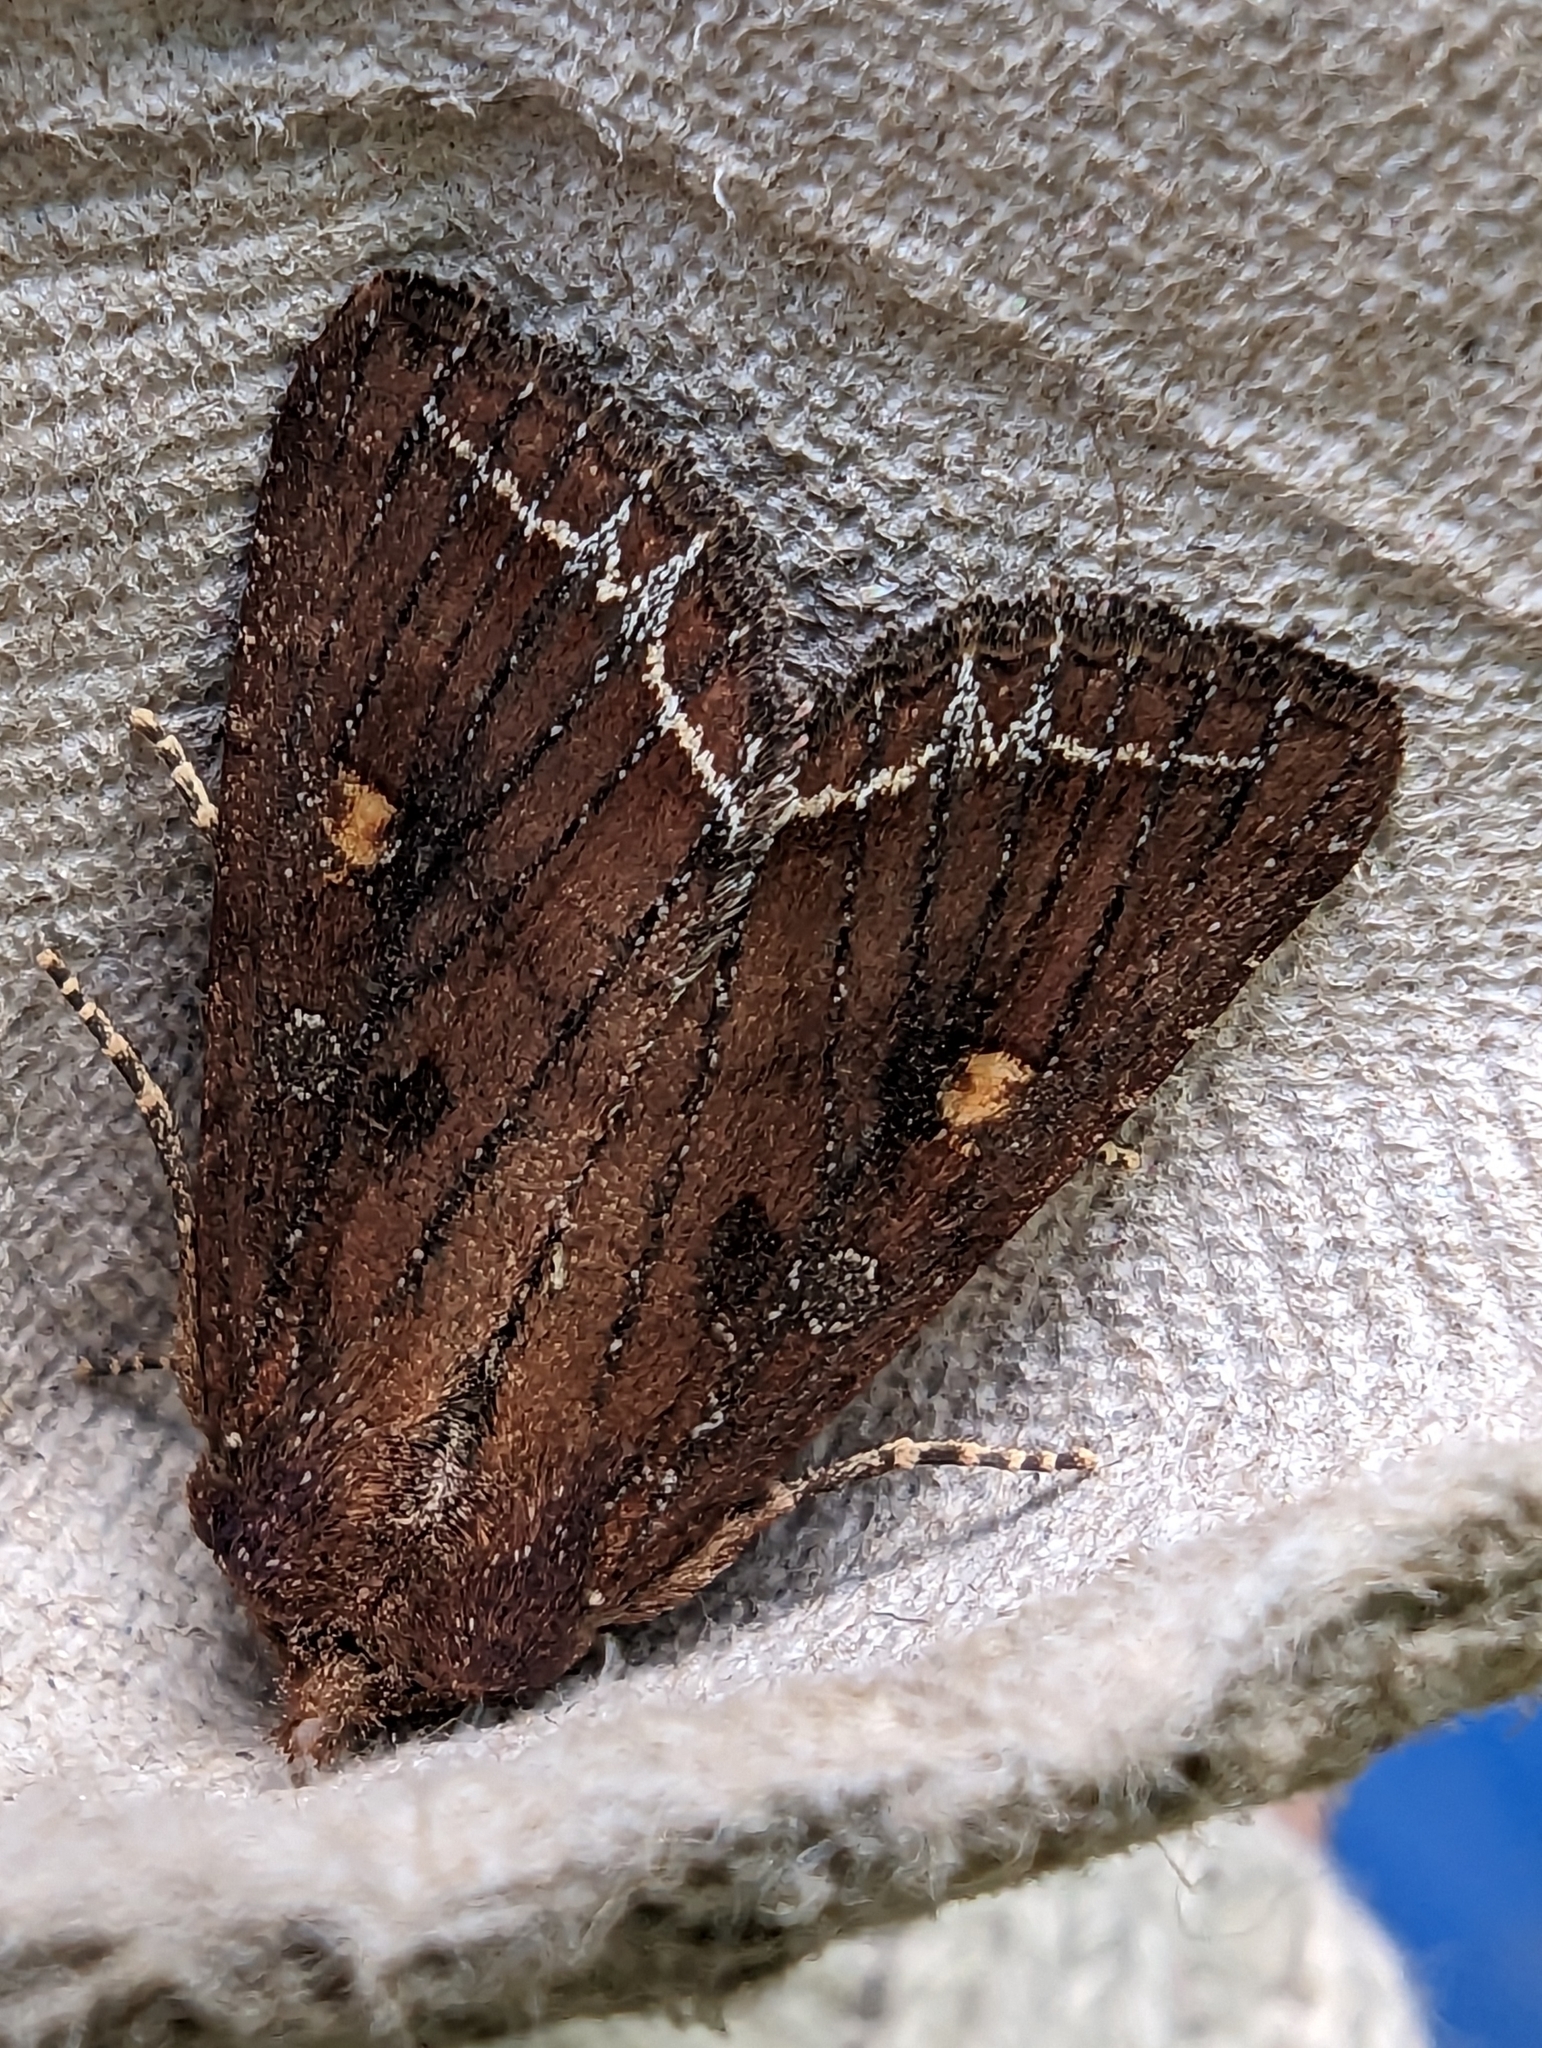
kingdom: Animalia
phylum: Arthropoda
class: Insecta
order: Lepidoptera
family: Noctuidae
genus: Lacanobia
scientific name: Lacanobia oleracea
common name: Bright-line brown-eye
